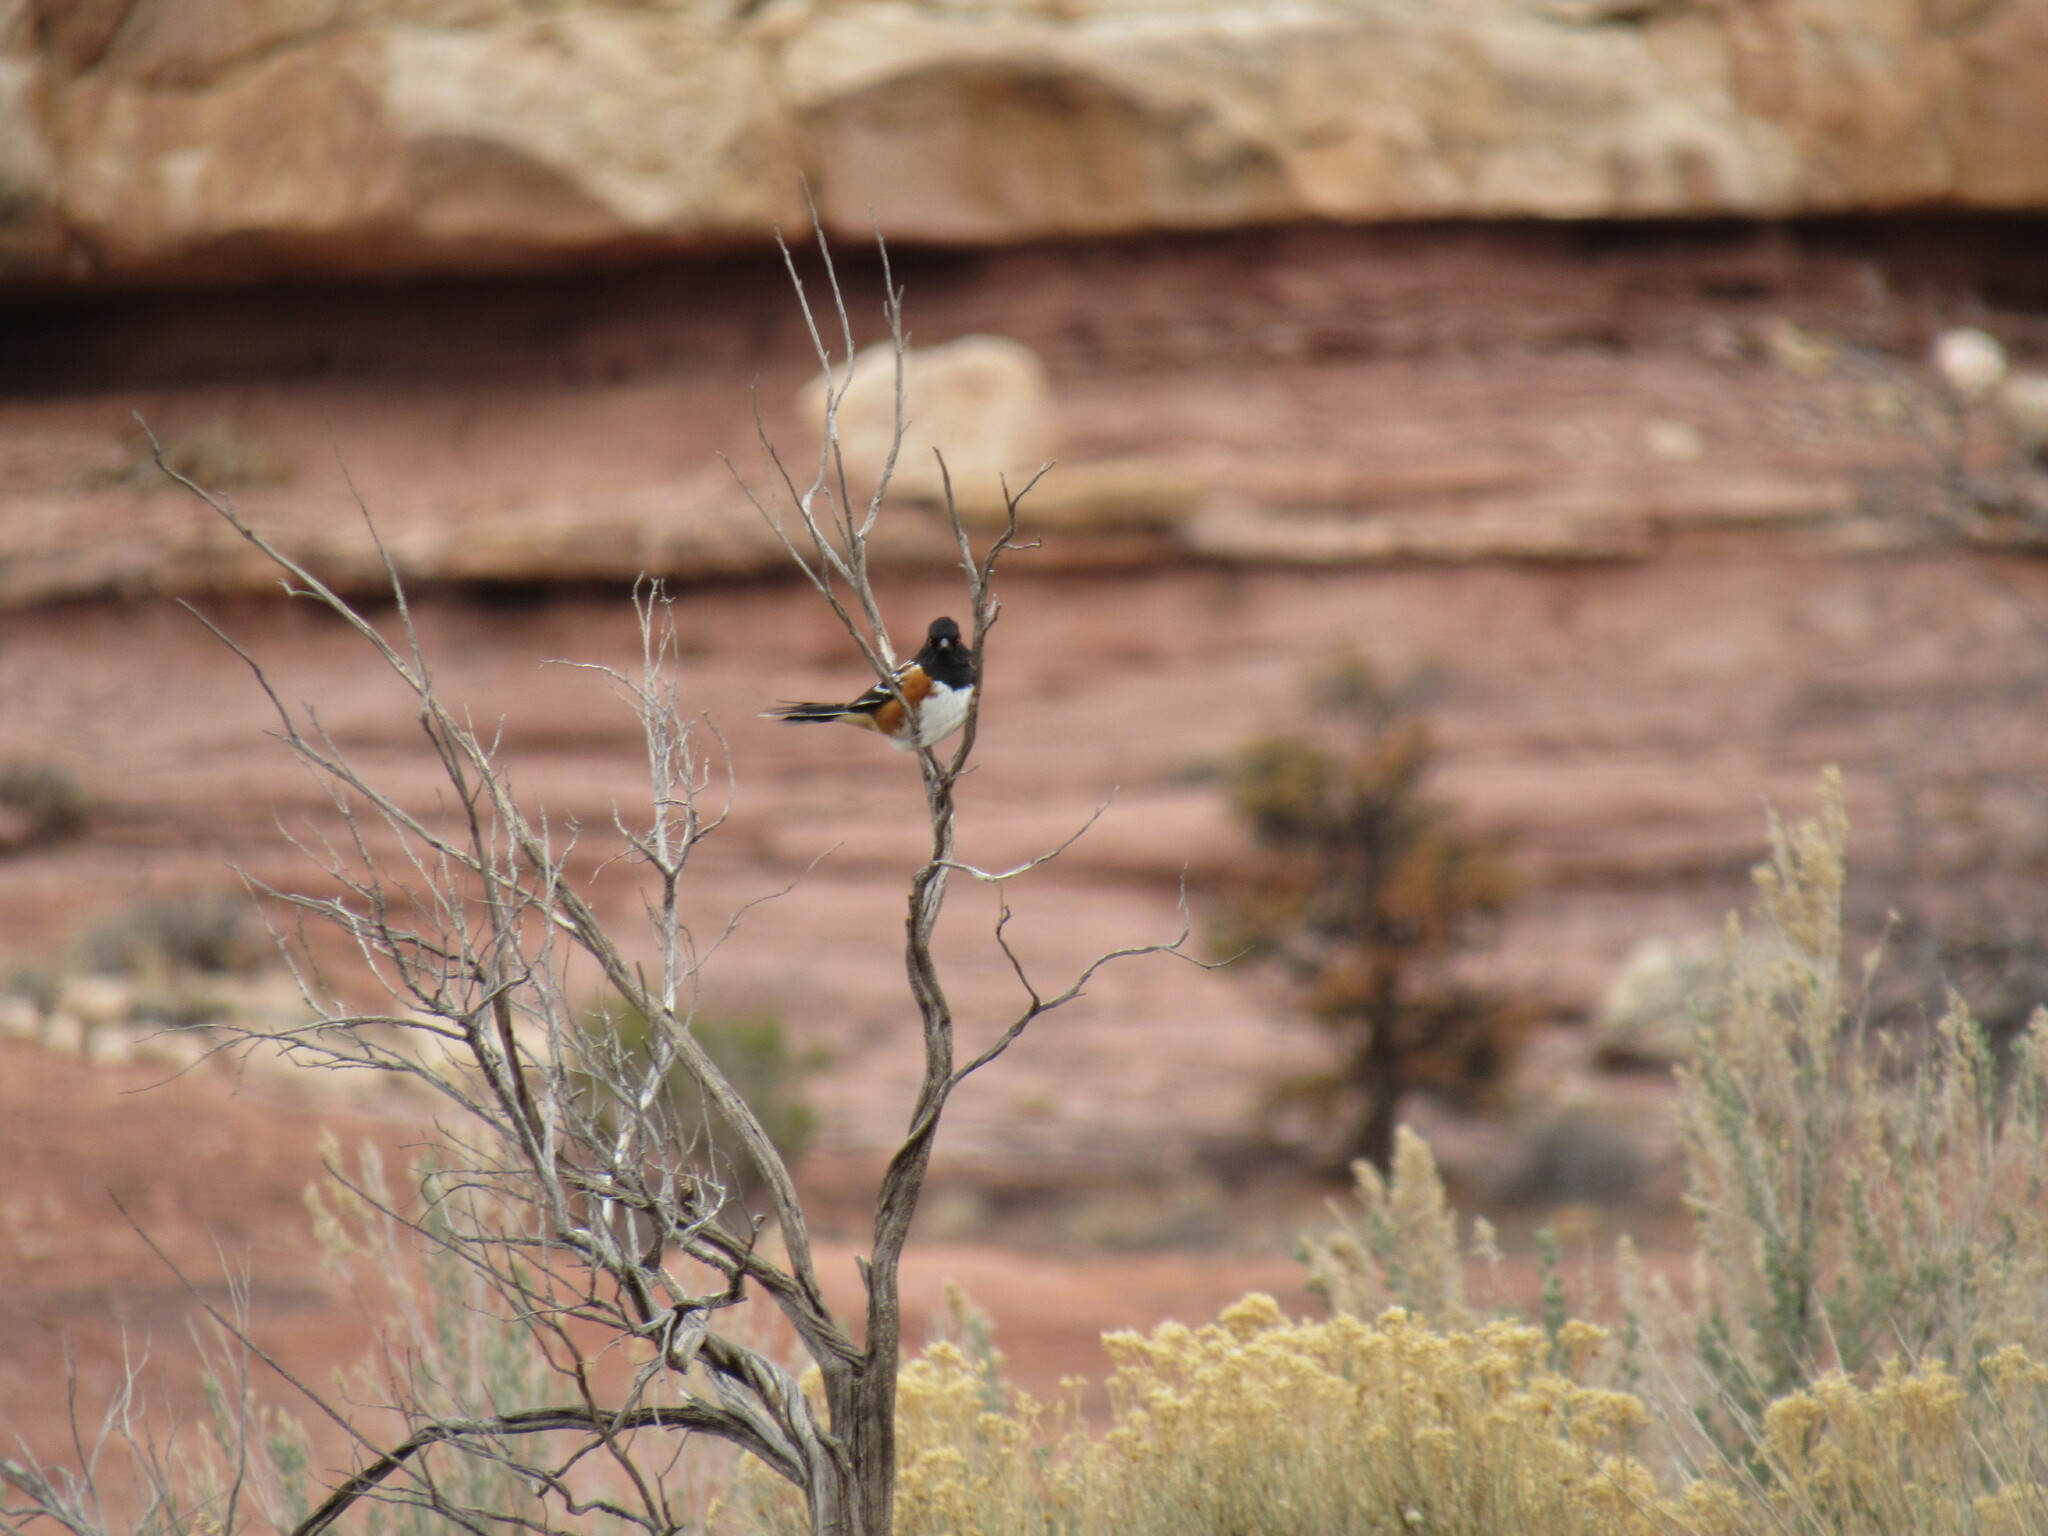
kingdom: Animalia
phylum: Chordata
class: Aves
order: Passeriformes
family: Passerellidae
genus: Pipilo
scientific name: Pipilo maculatus
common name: Spotted towhee
